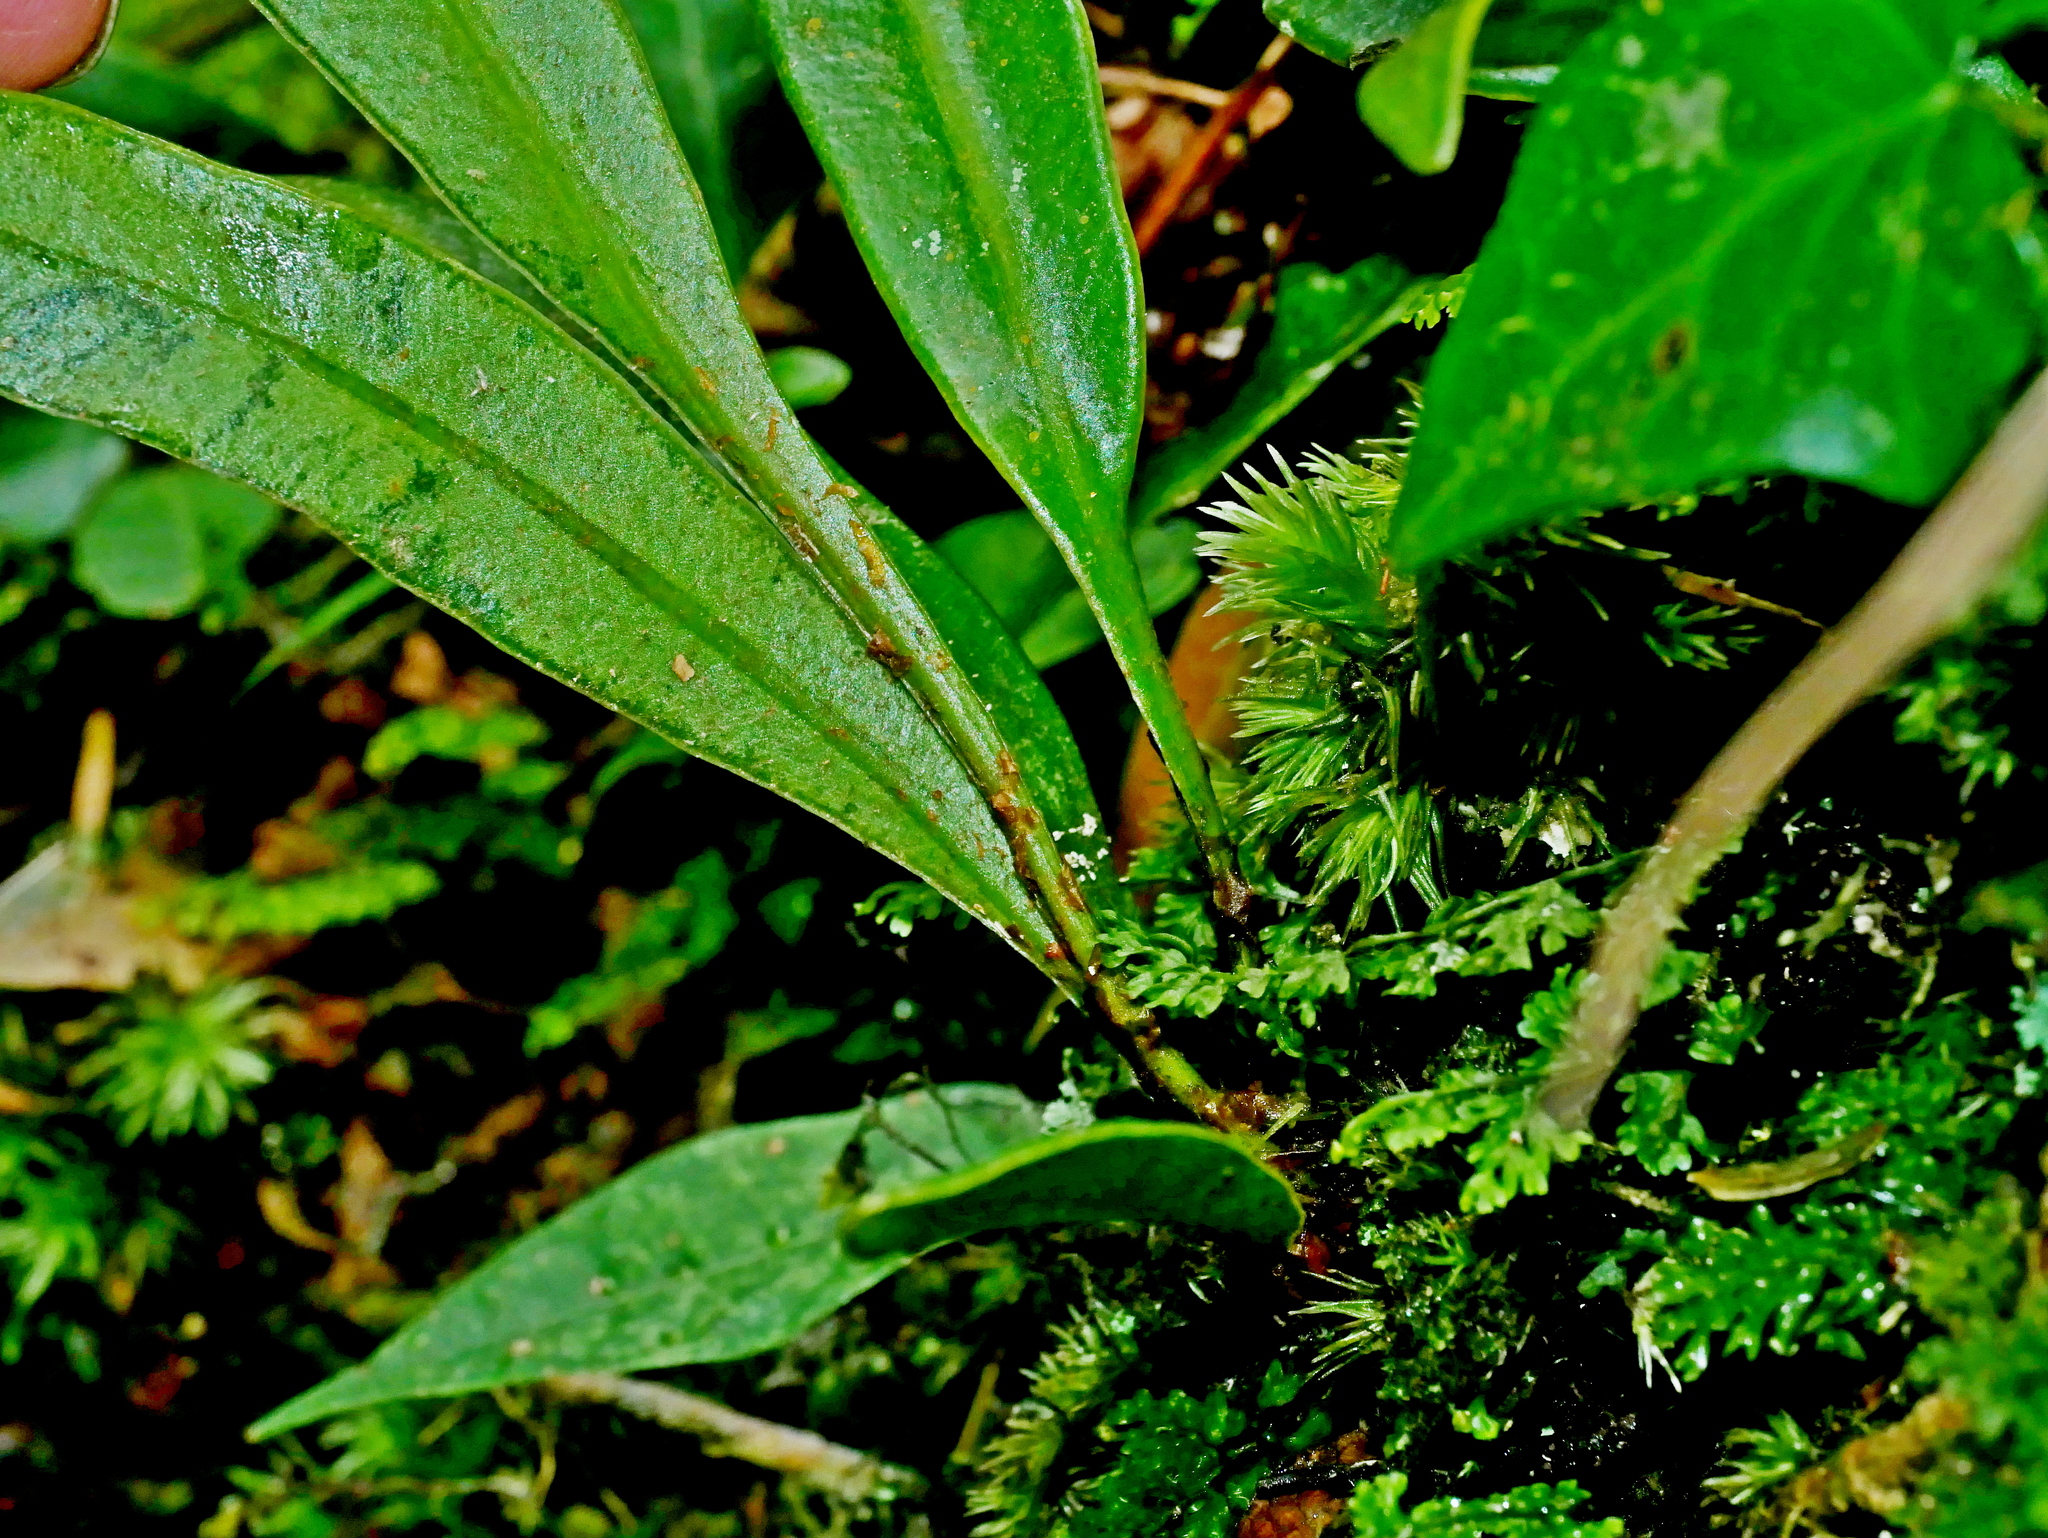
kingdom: Plantae
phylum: Tracheophyta
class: Polypodiopsida
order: Polypodiales
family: Dryopteridaceae
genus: Elaphoglossum
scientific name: Elaphoglossum yoshinagae
